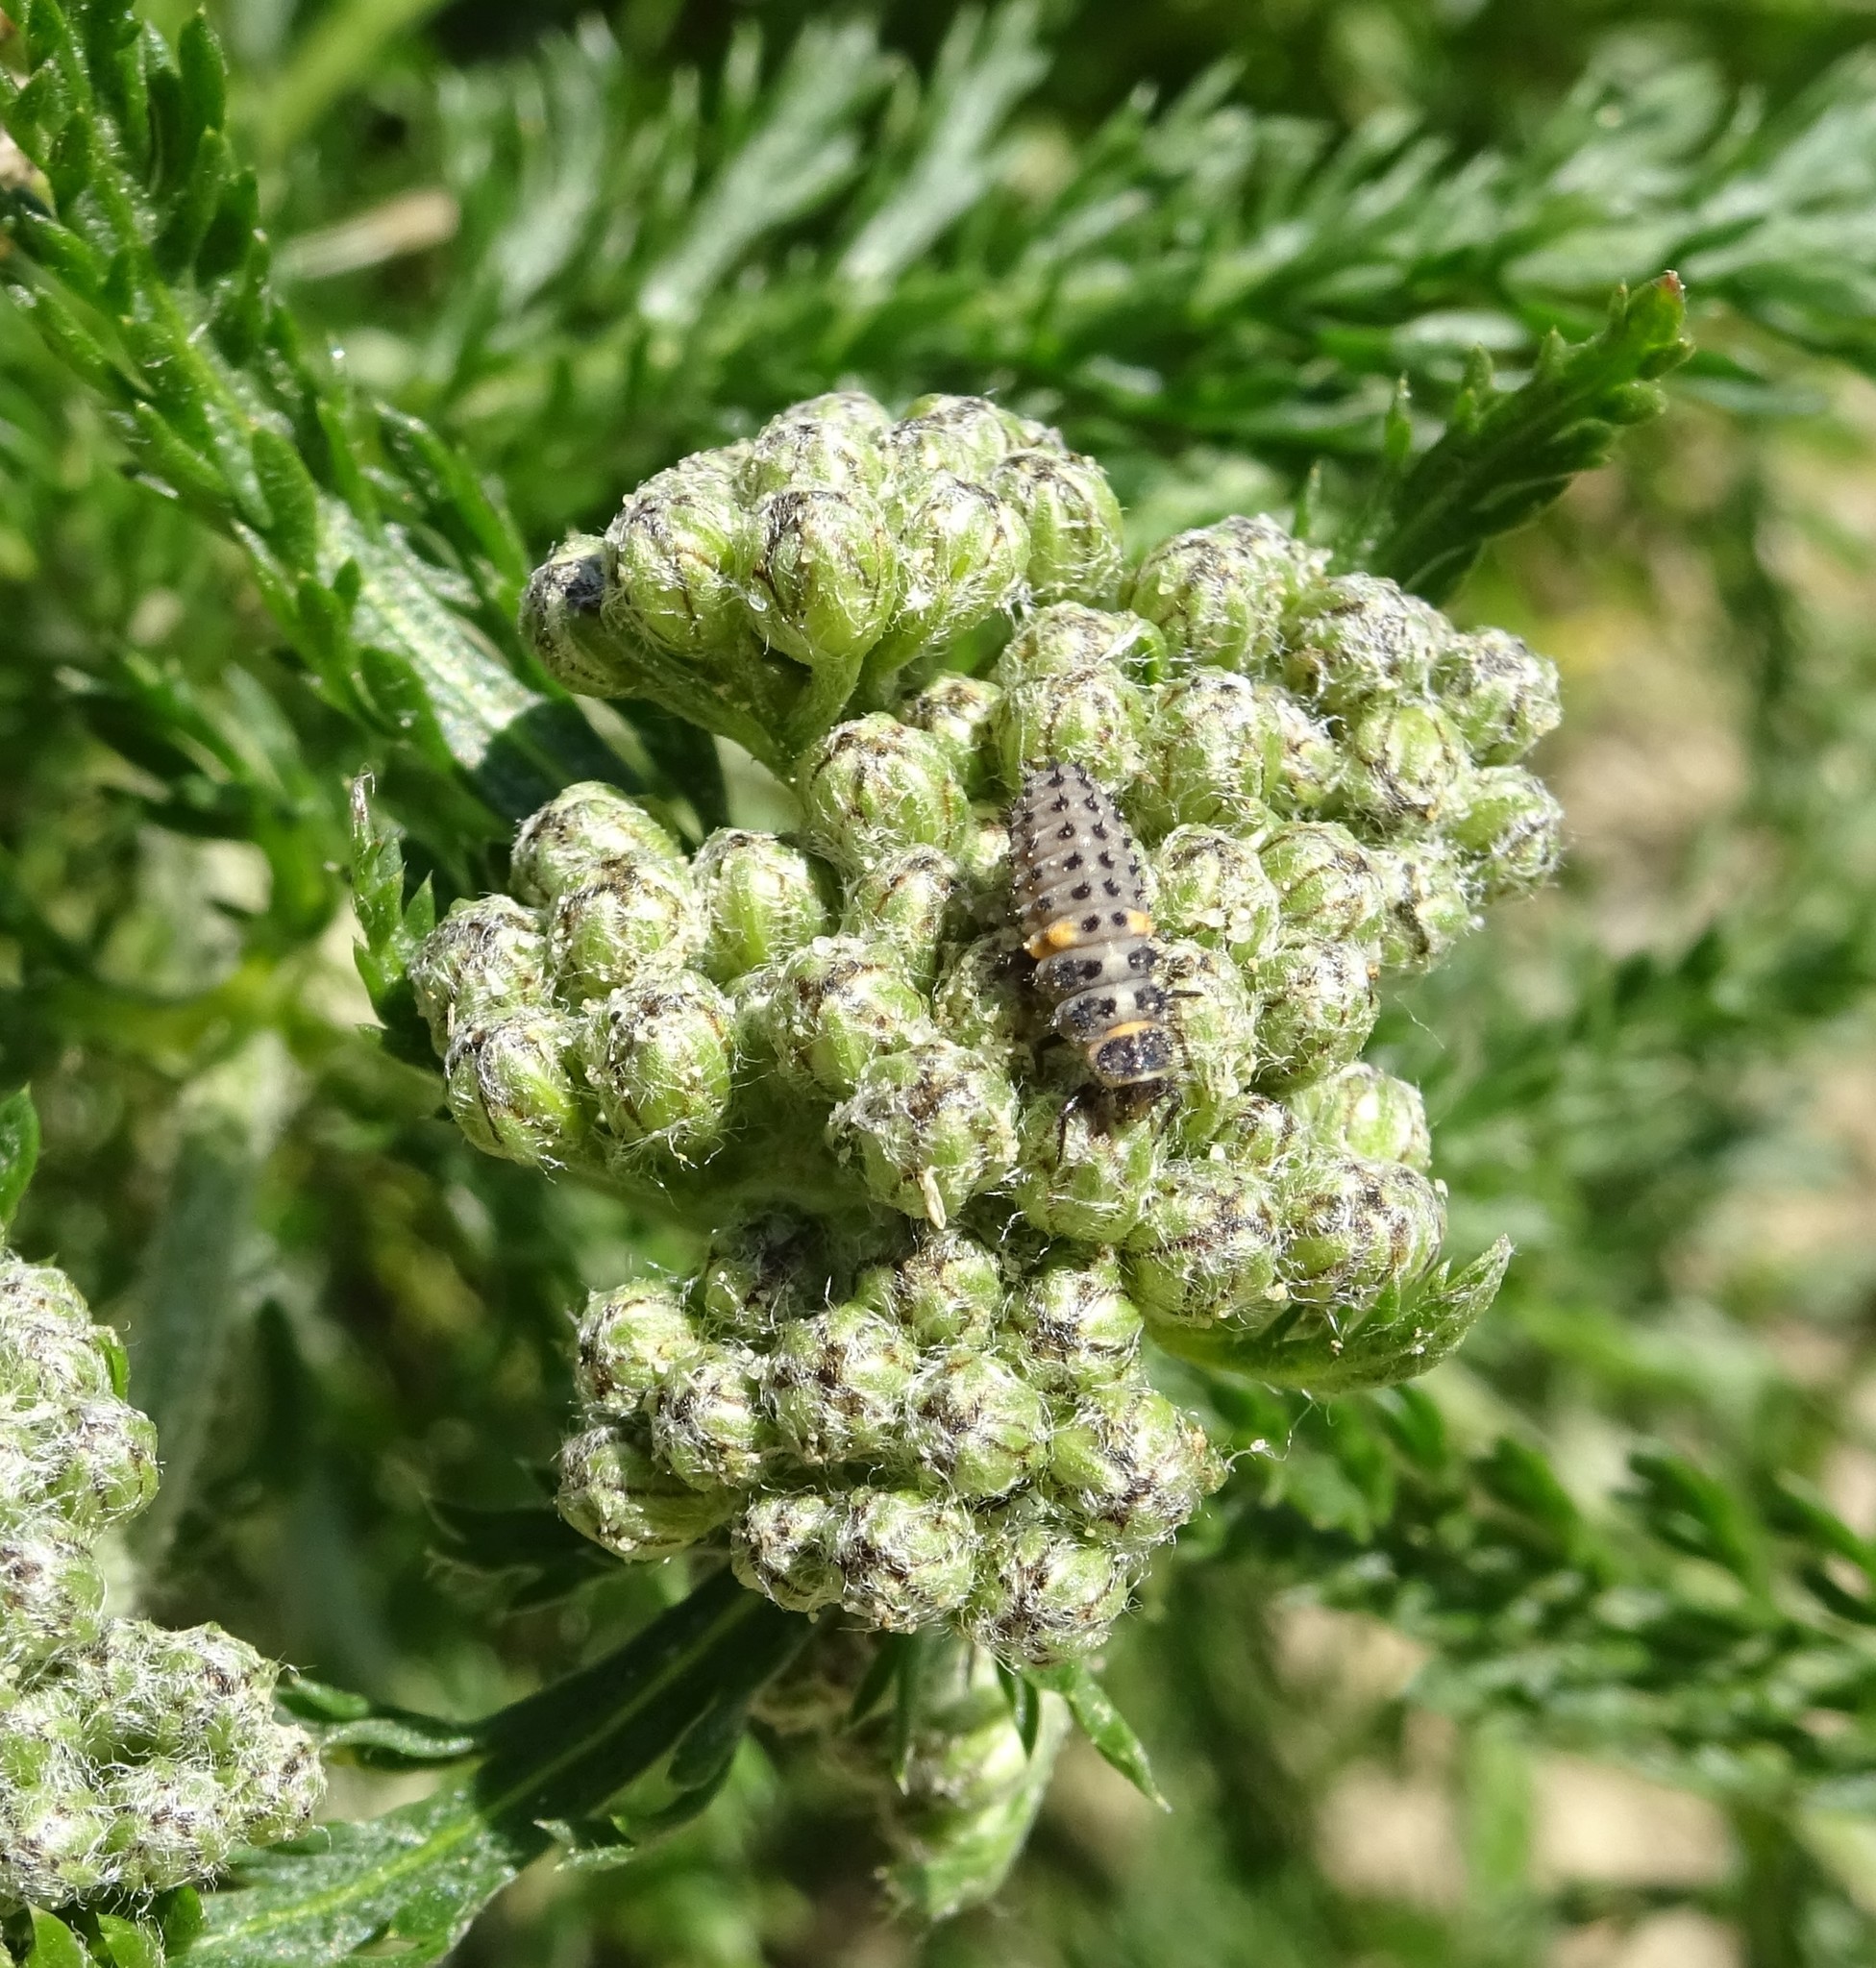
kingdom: Animalia
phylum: Arthropoda
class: Insecta
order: Coleoptera
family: Coccinellidae
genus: Hippodamia
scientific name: Hippodamia variegata
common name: Ladybird beetle
